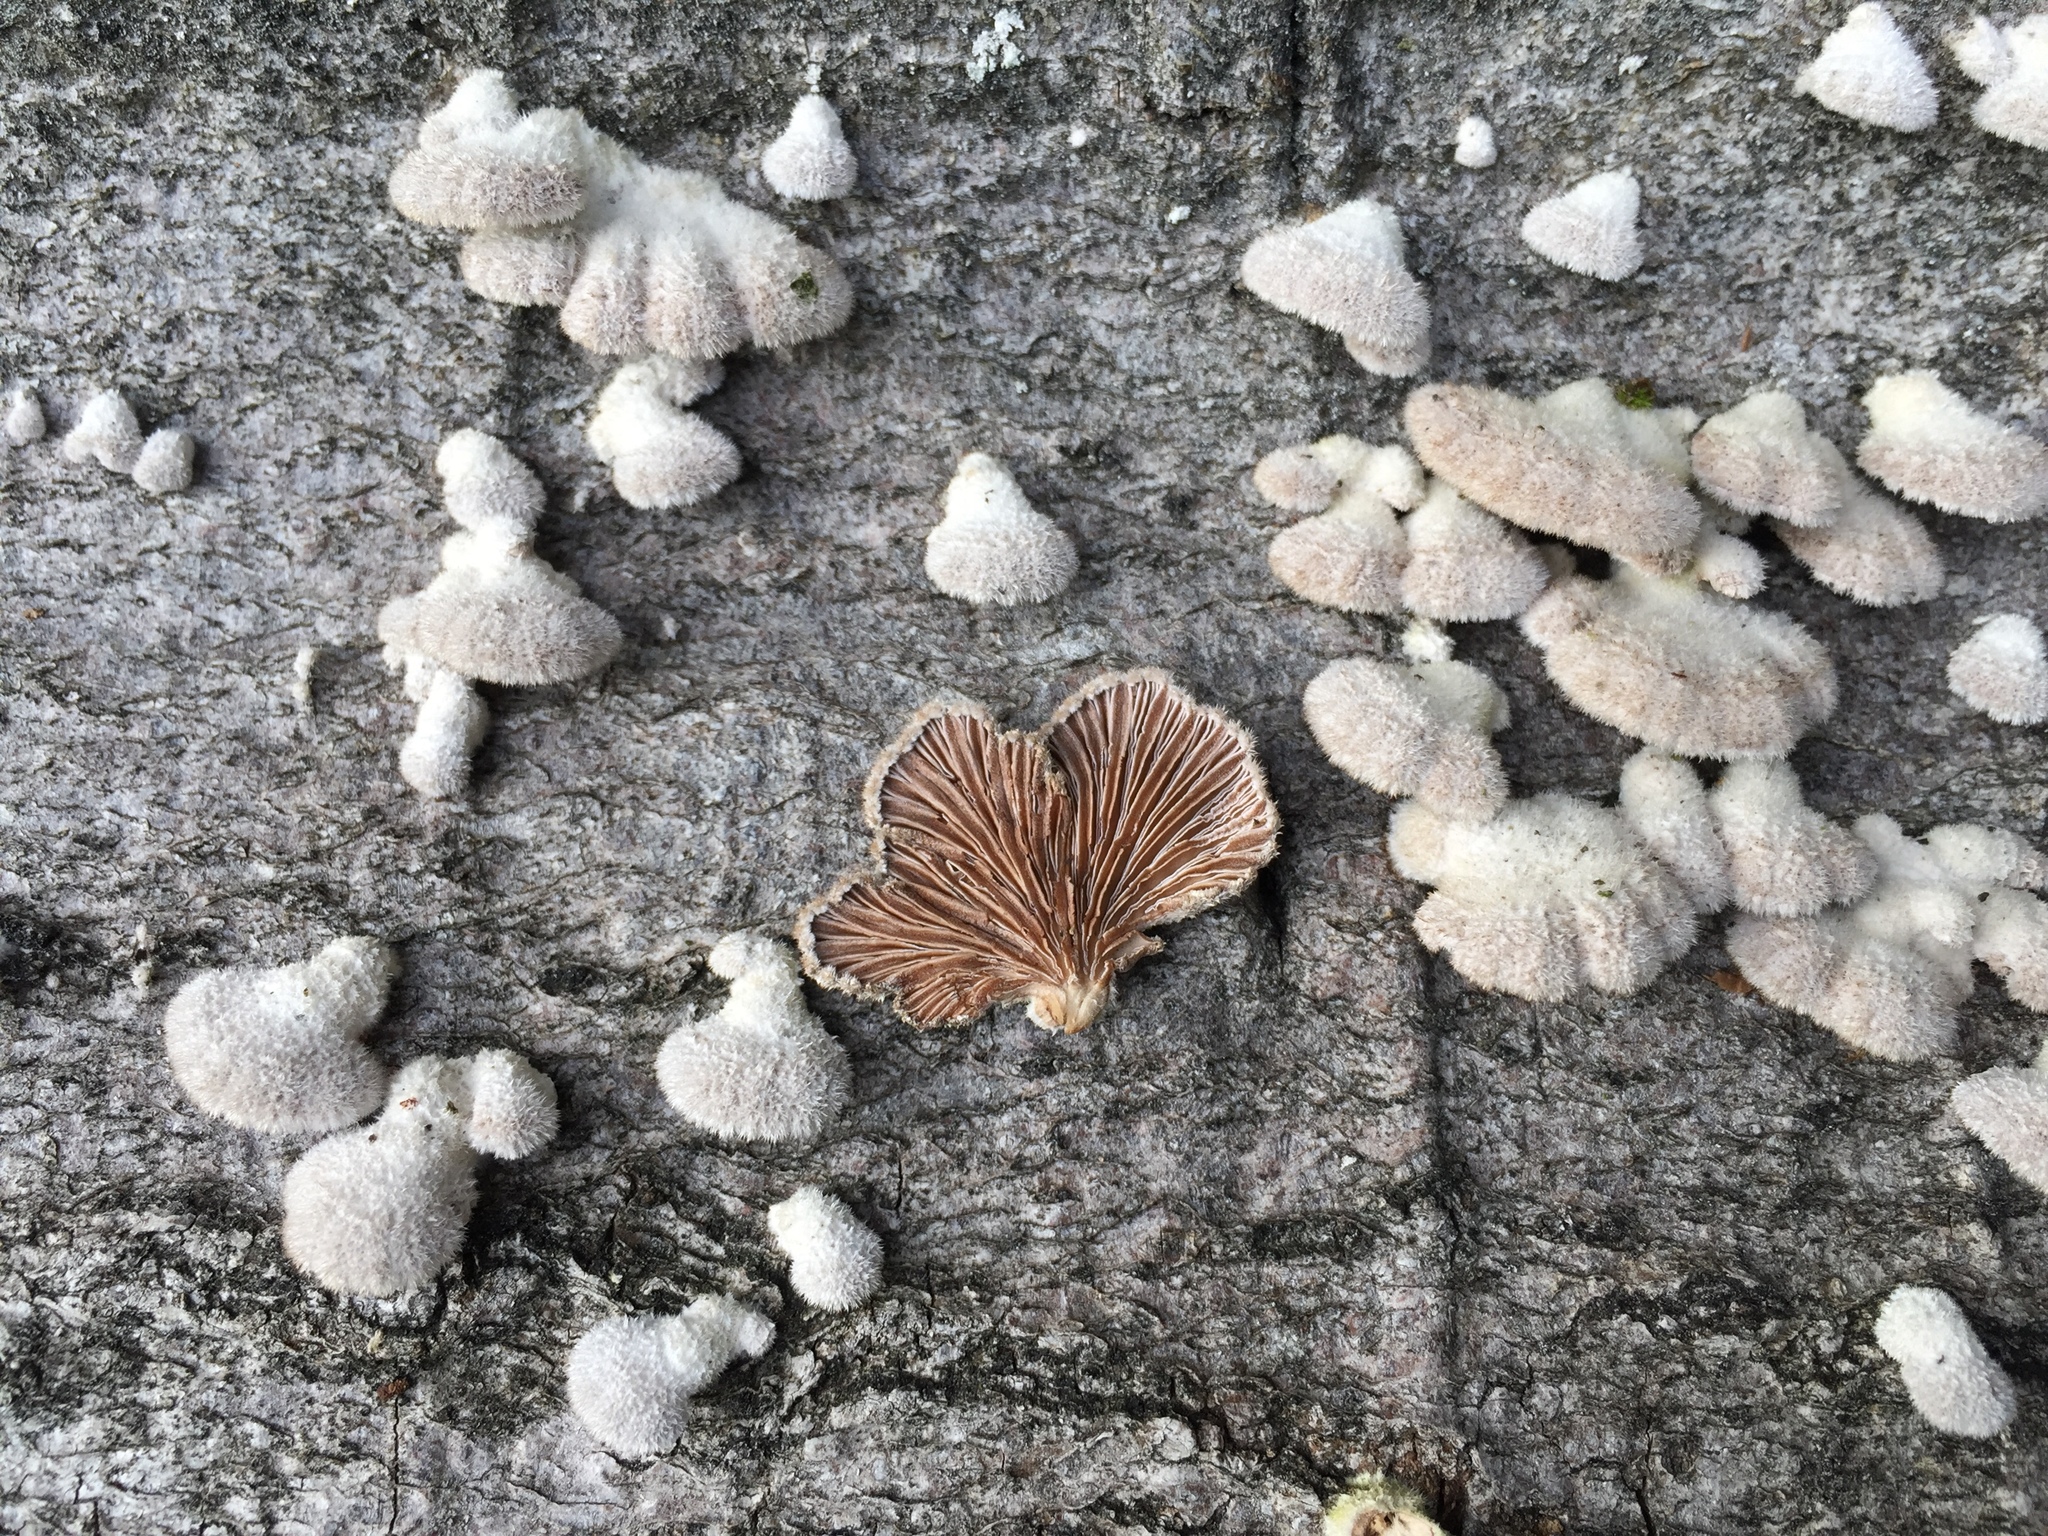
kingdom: Fungi
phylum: Basidiomycota
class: Agaricomycetes
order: Agaricales
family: Schizophyllaceae
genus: Schizophyllum
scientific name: Schizophyllum commune
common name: Common porecrust
